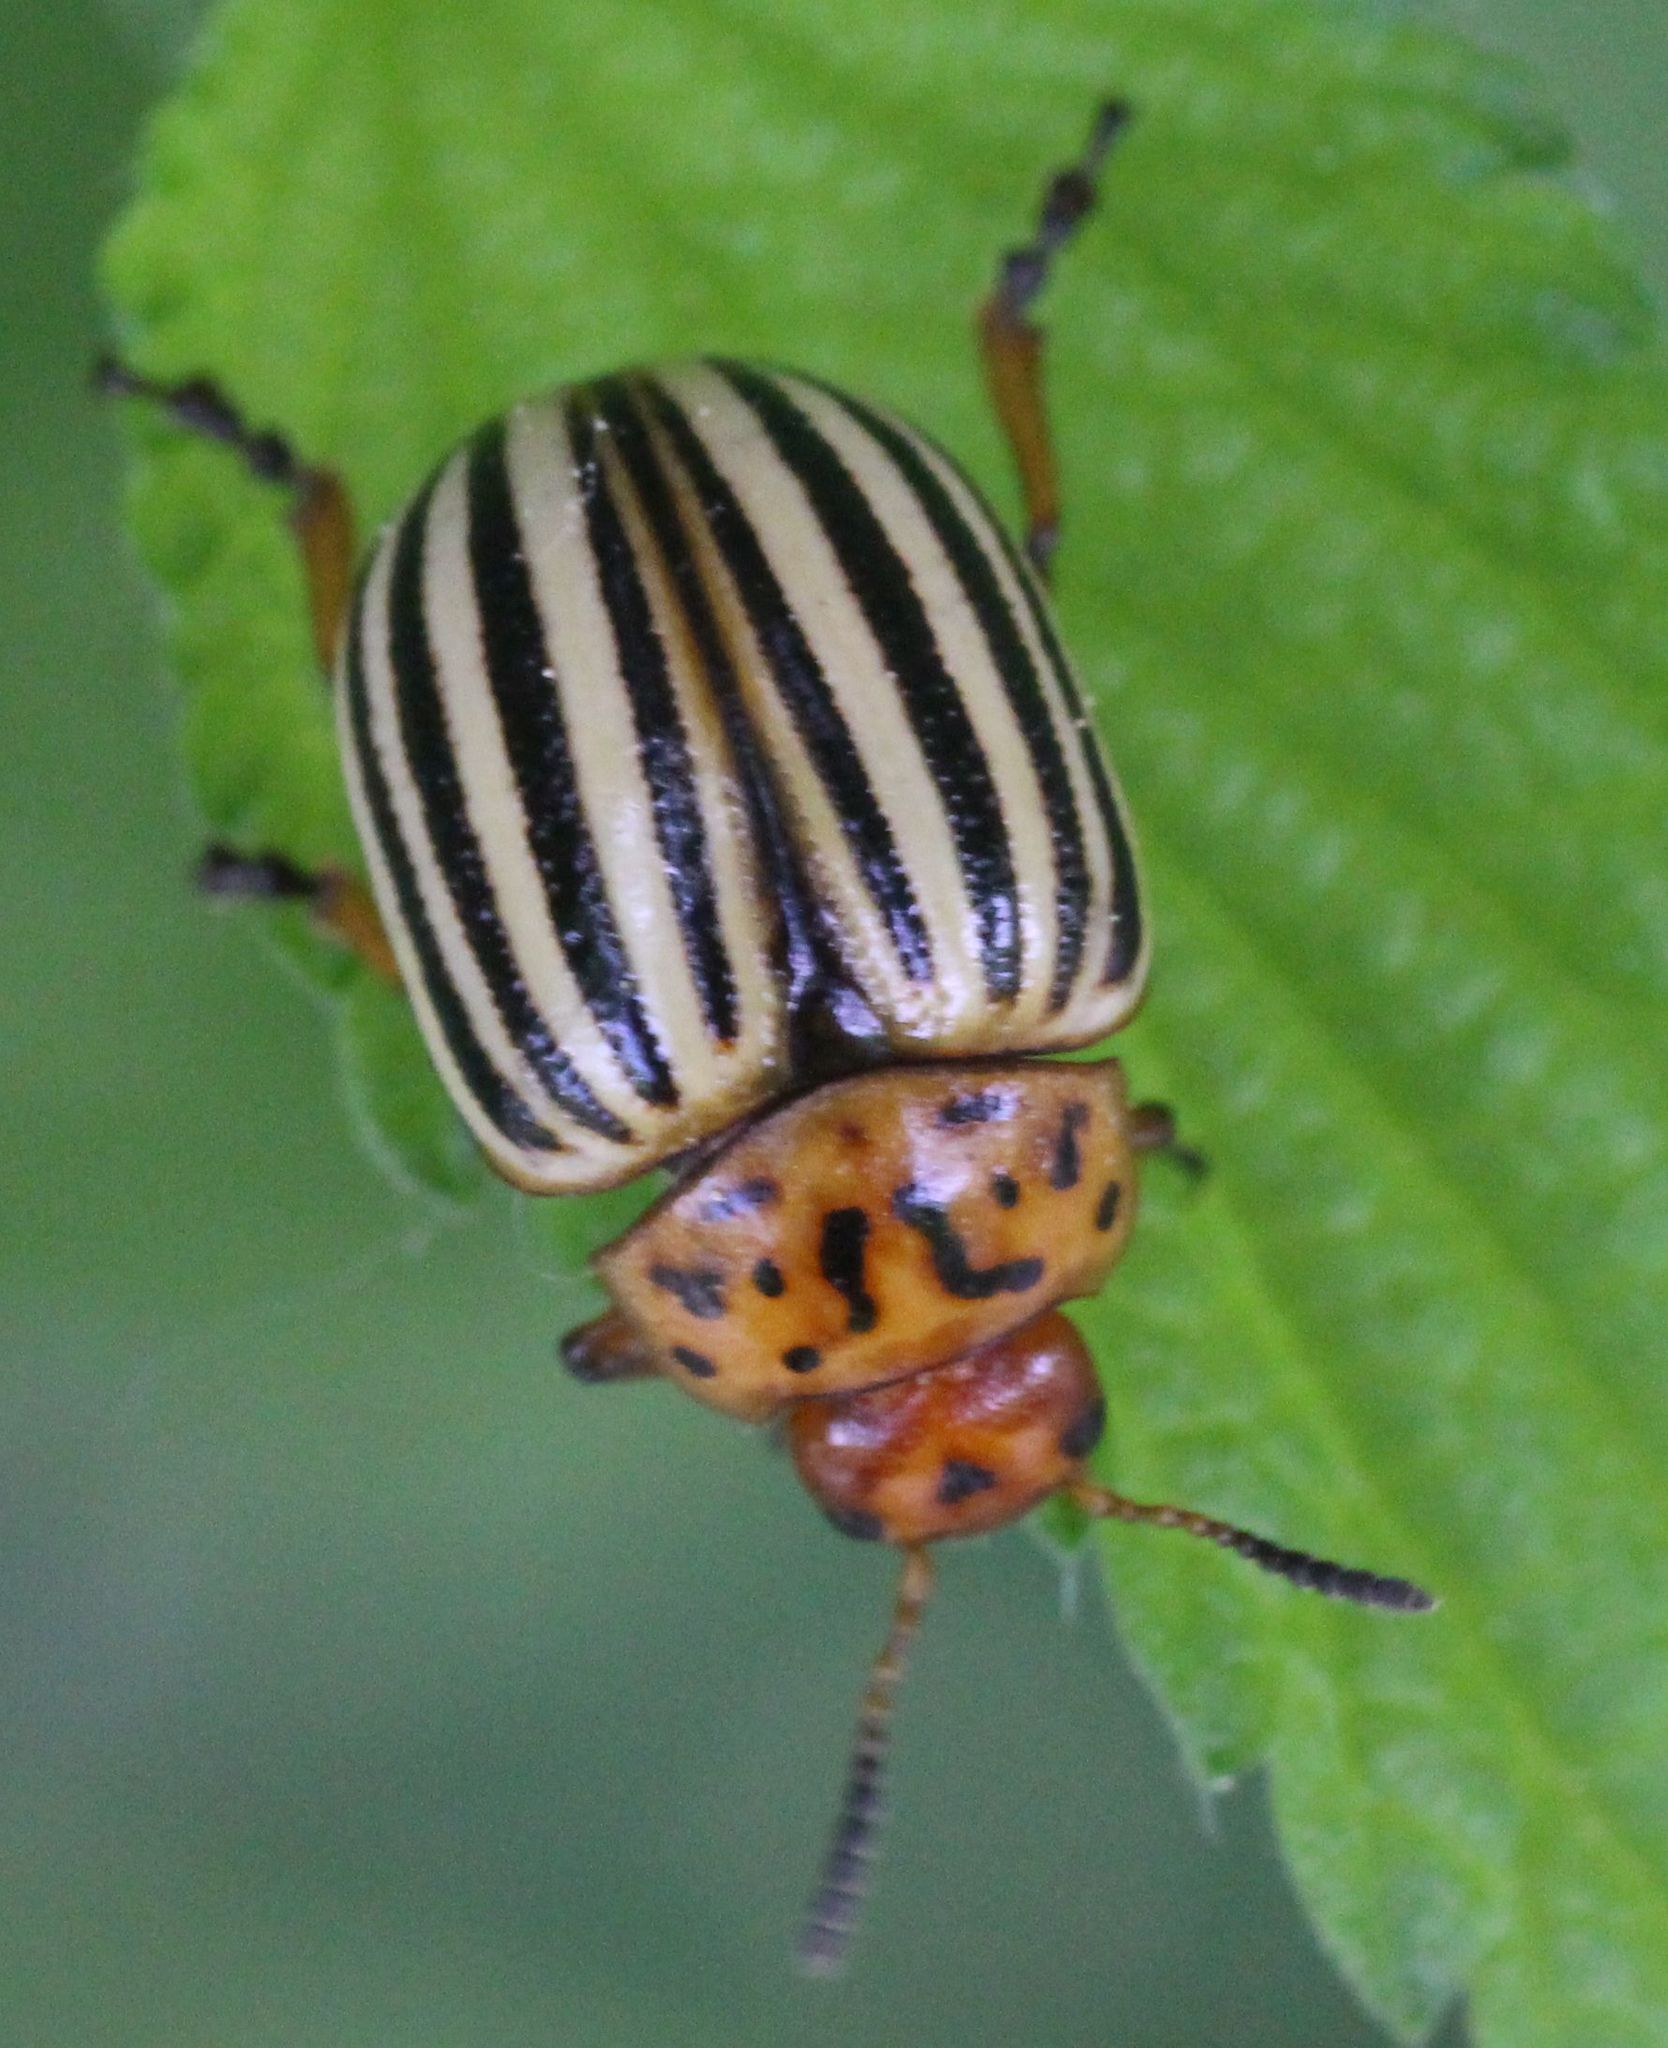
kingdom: Animalia
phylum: Arthropoda
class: Insecta
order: Coleoptera
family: Chrysomelidae
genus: Leptinotarsa
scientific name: Leptinotarsa decemlineata
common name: Colorado potato beetle
